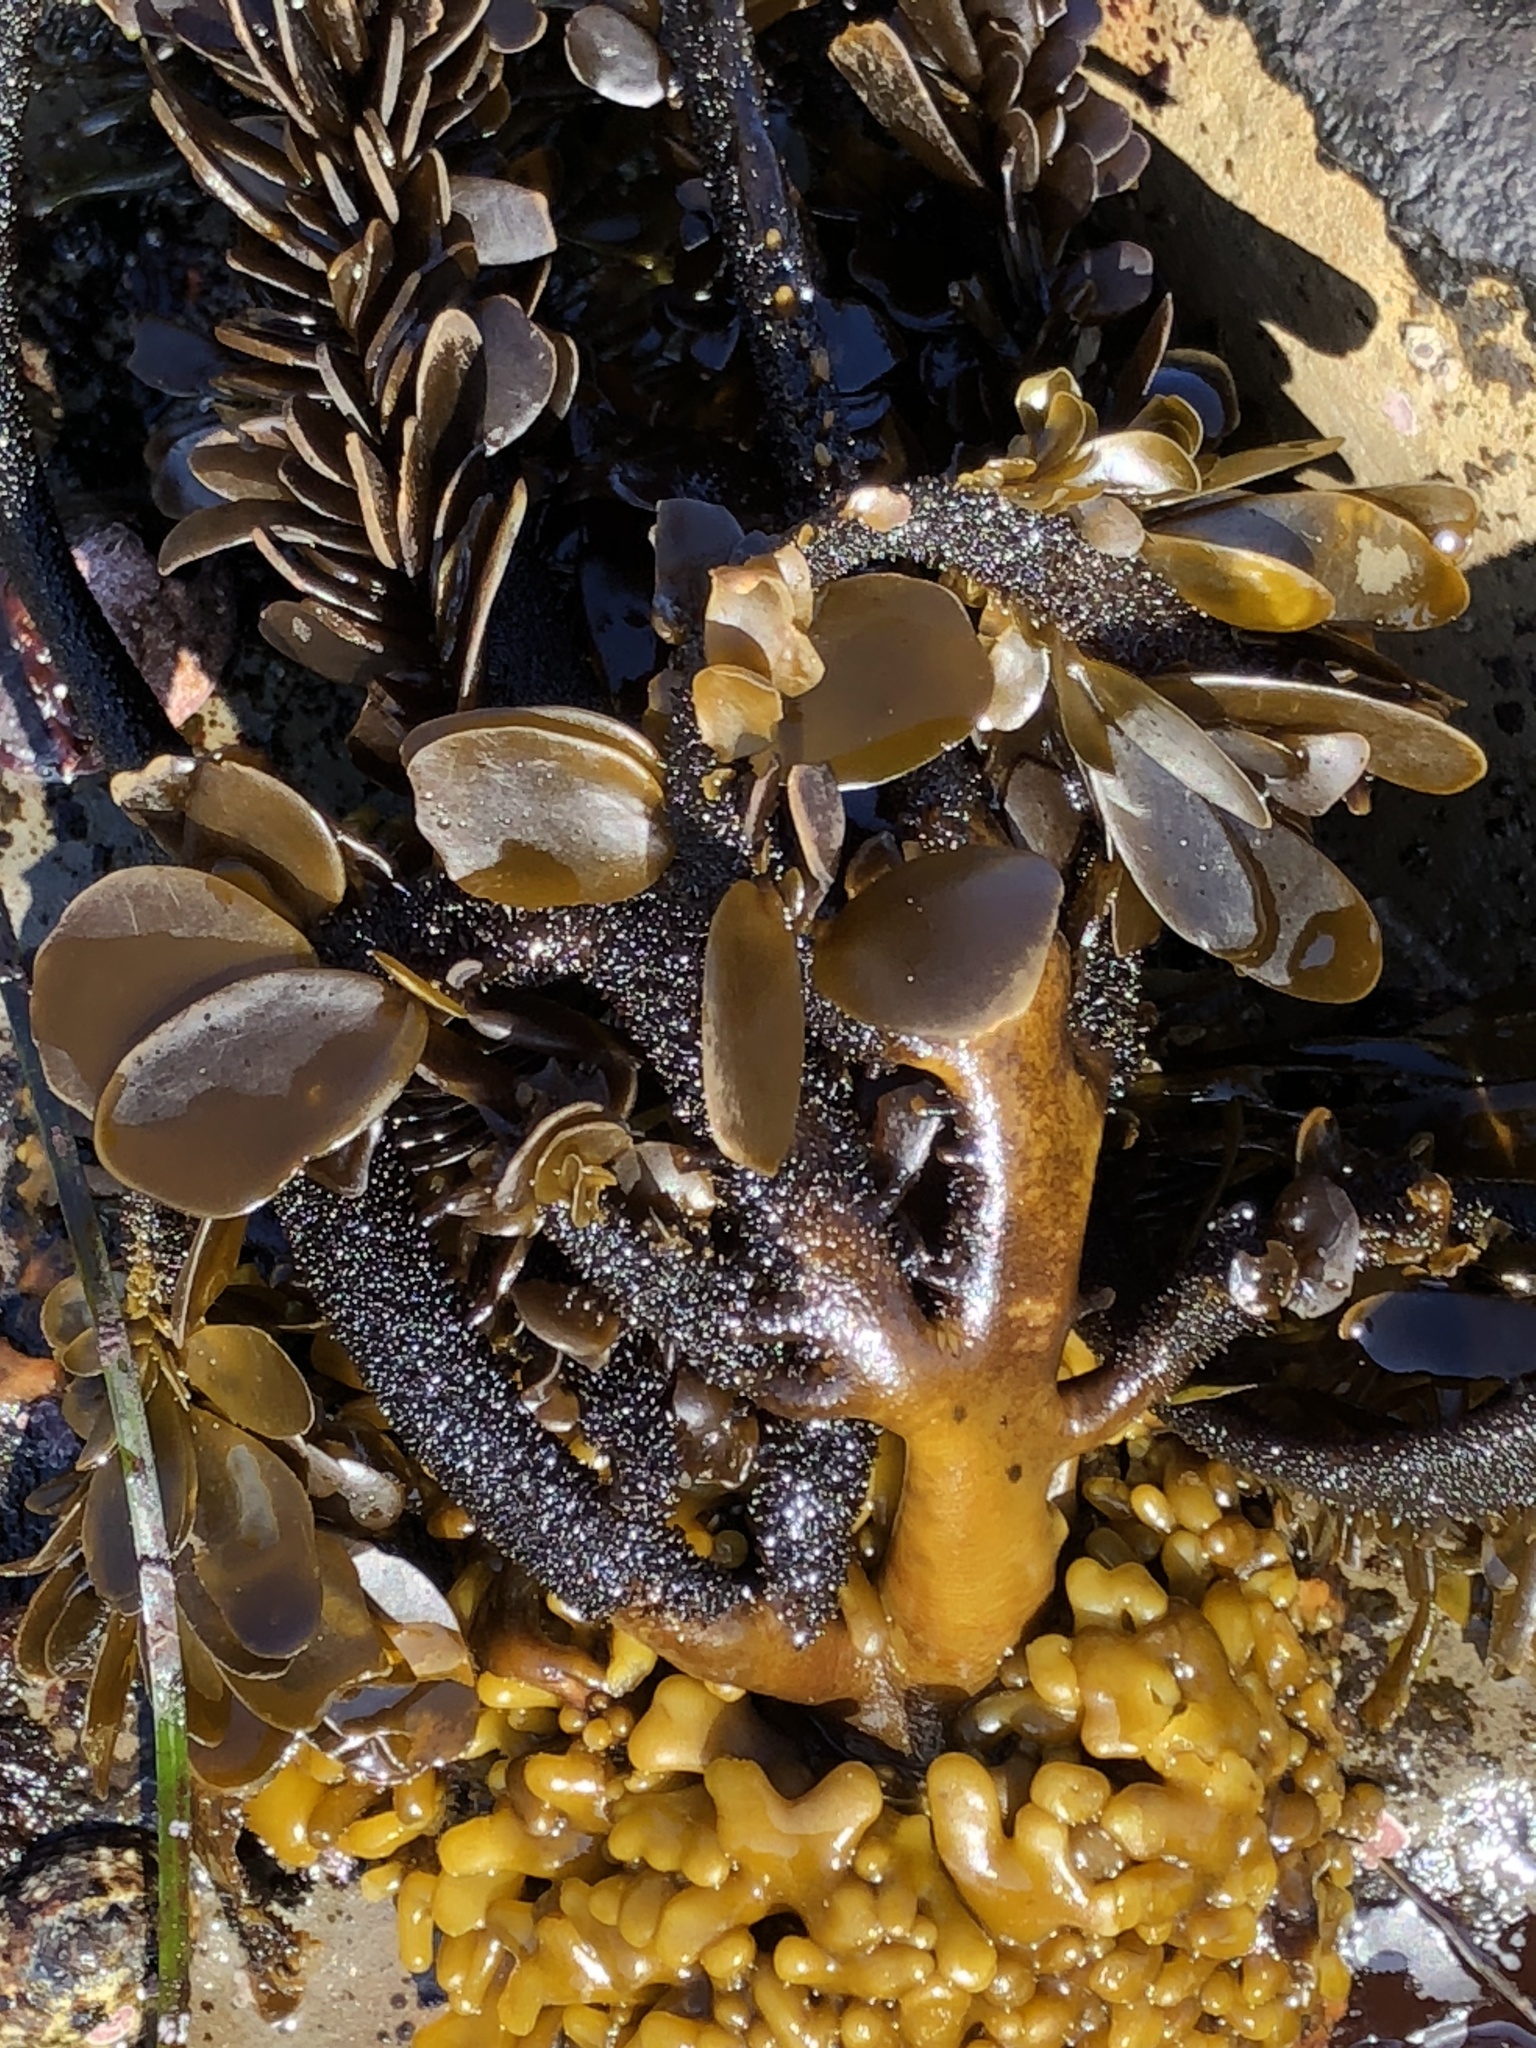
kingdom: Chromista
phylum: Ochrophyta
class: Phaeophyceae
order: Laminariales
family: Lessoniaceae
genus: Egregia
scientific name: Egregia menziesii
